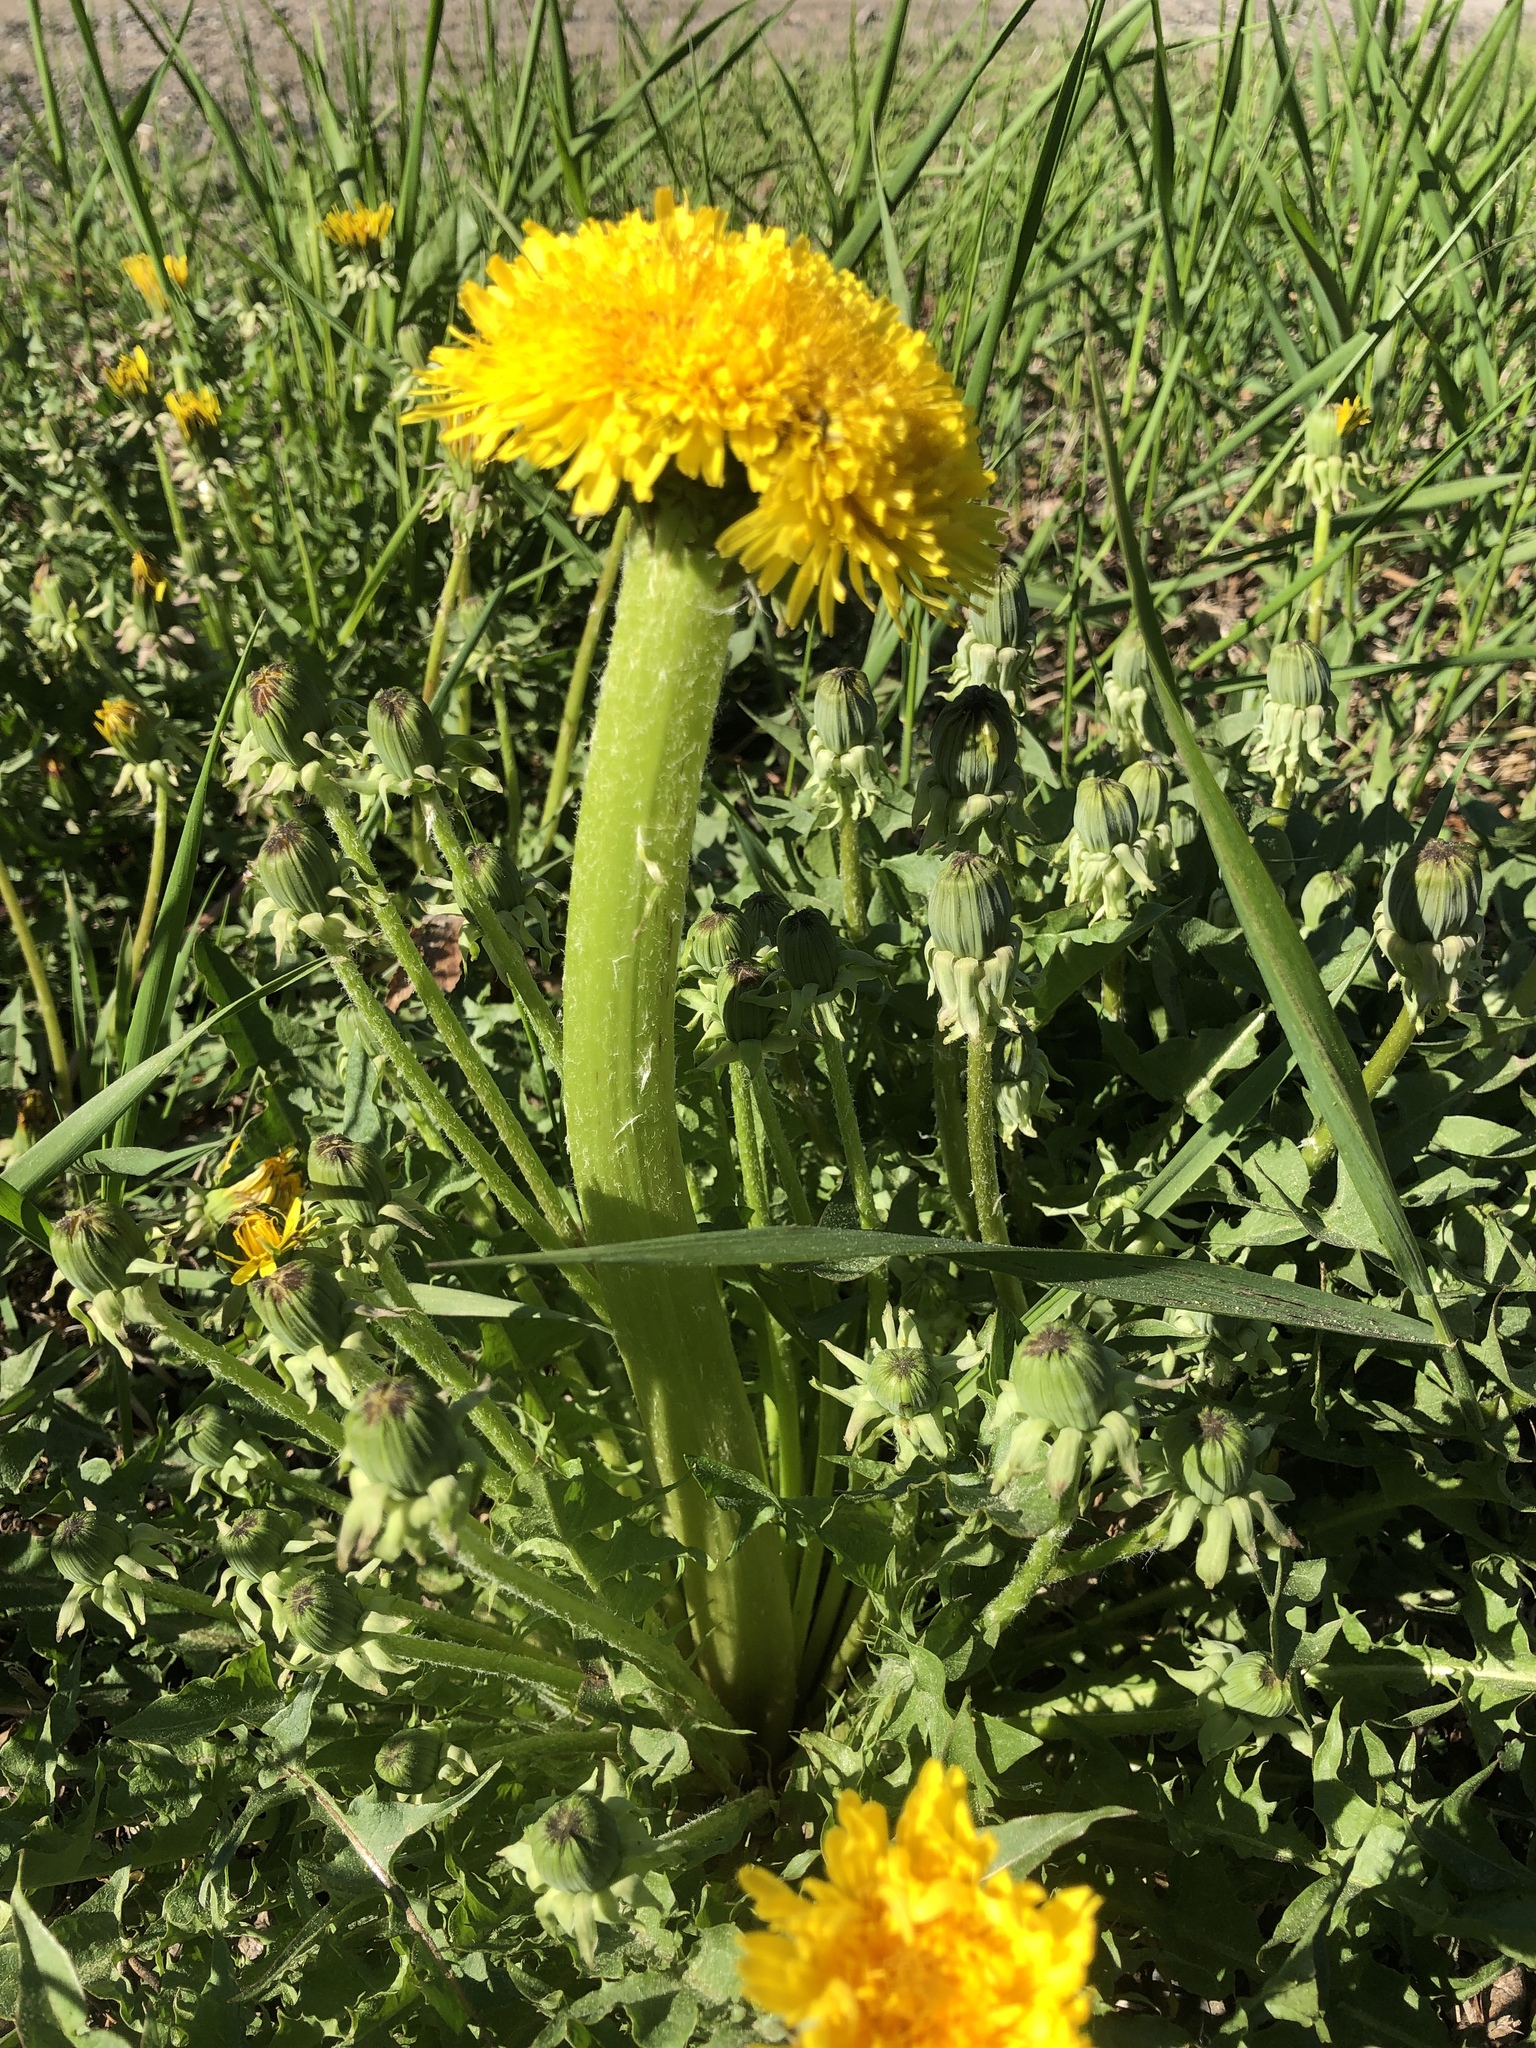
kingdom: Plantae
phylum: Tracheophyta
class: Magnoliopsida
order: Asterales
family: Asteraceae
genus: Taraxacum
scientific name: Taraxacum officinale
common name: Common dandelion
